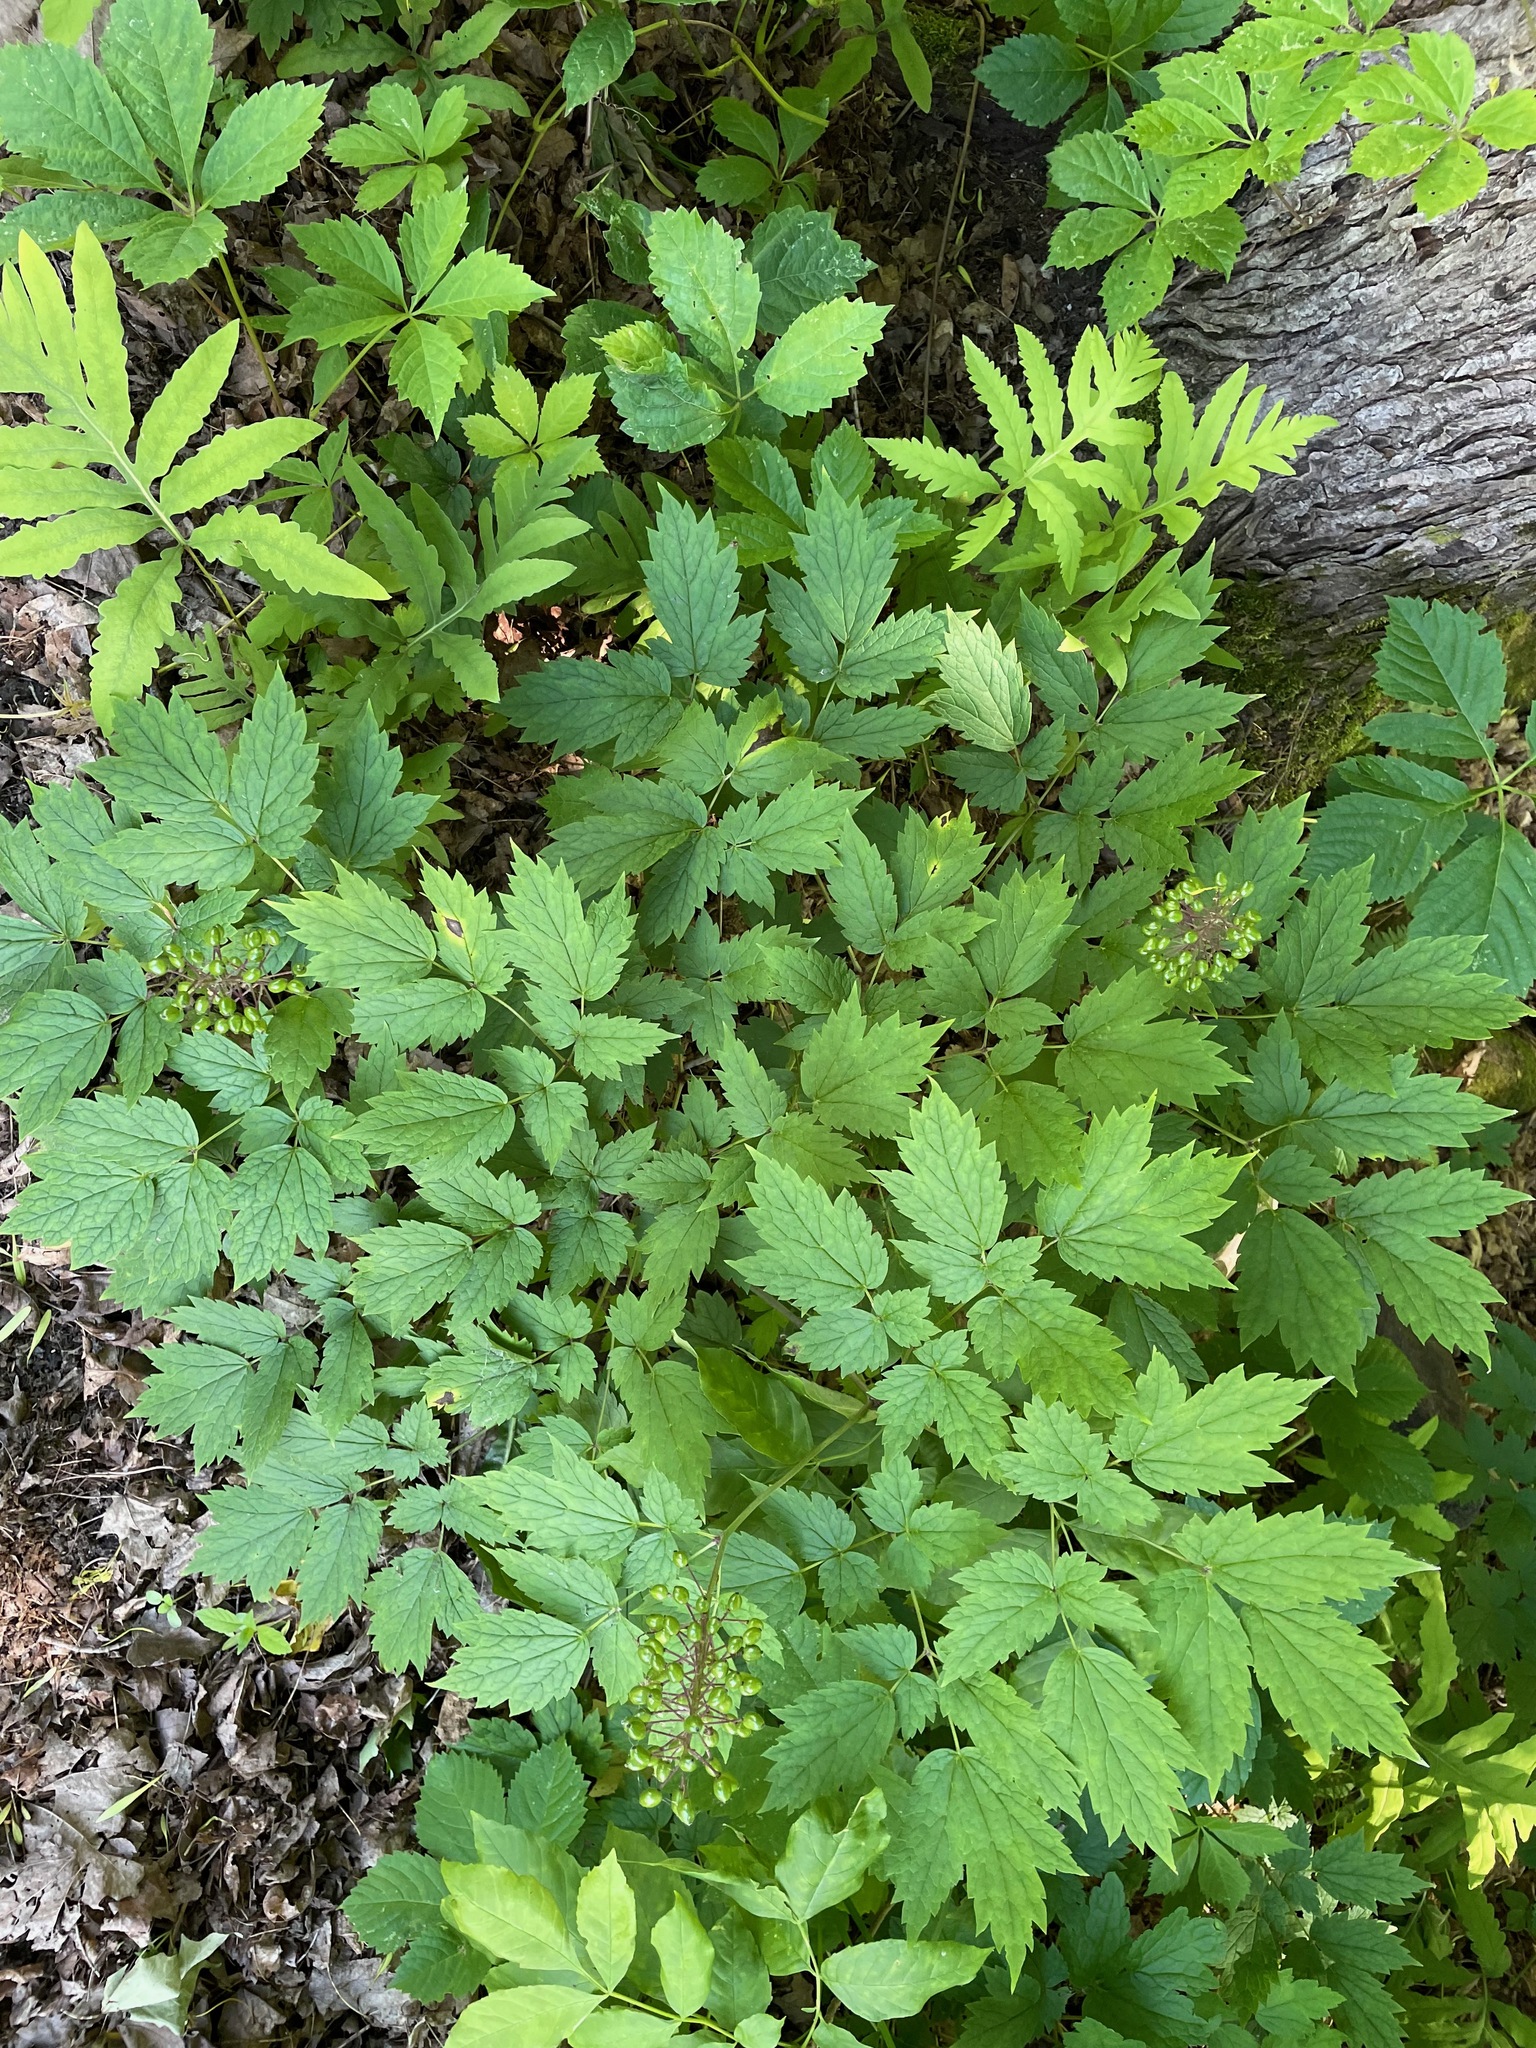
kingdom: Plantae
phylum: Tracheophyta
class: Magnoliopsida
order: Ranunculales
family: Ranunculaceae
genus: Actaea
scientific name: Actaea rubra
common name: Red baneberry
